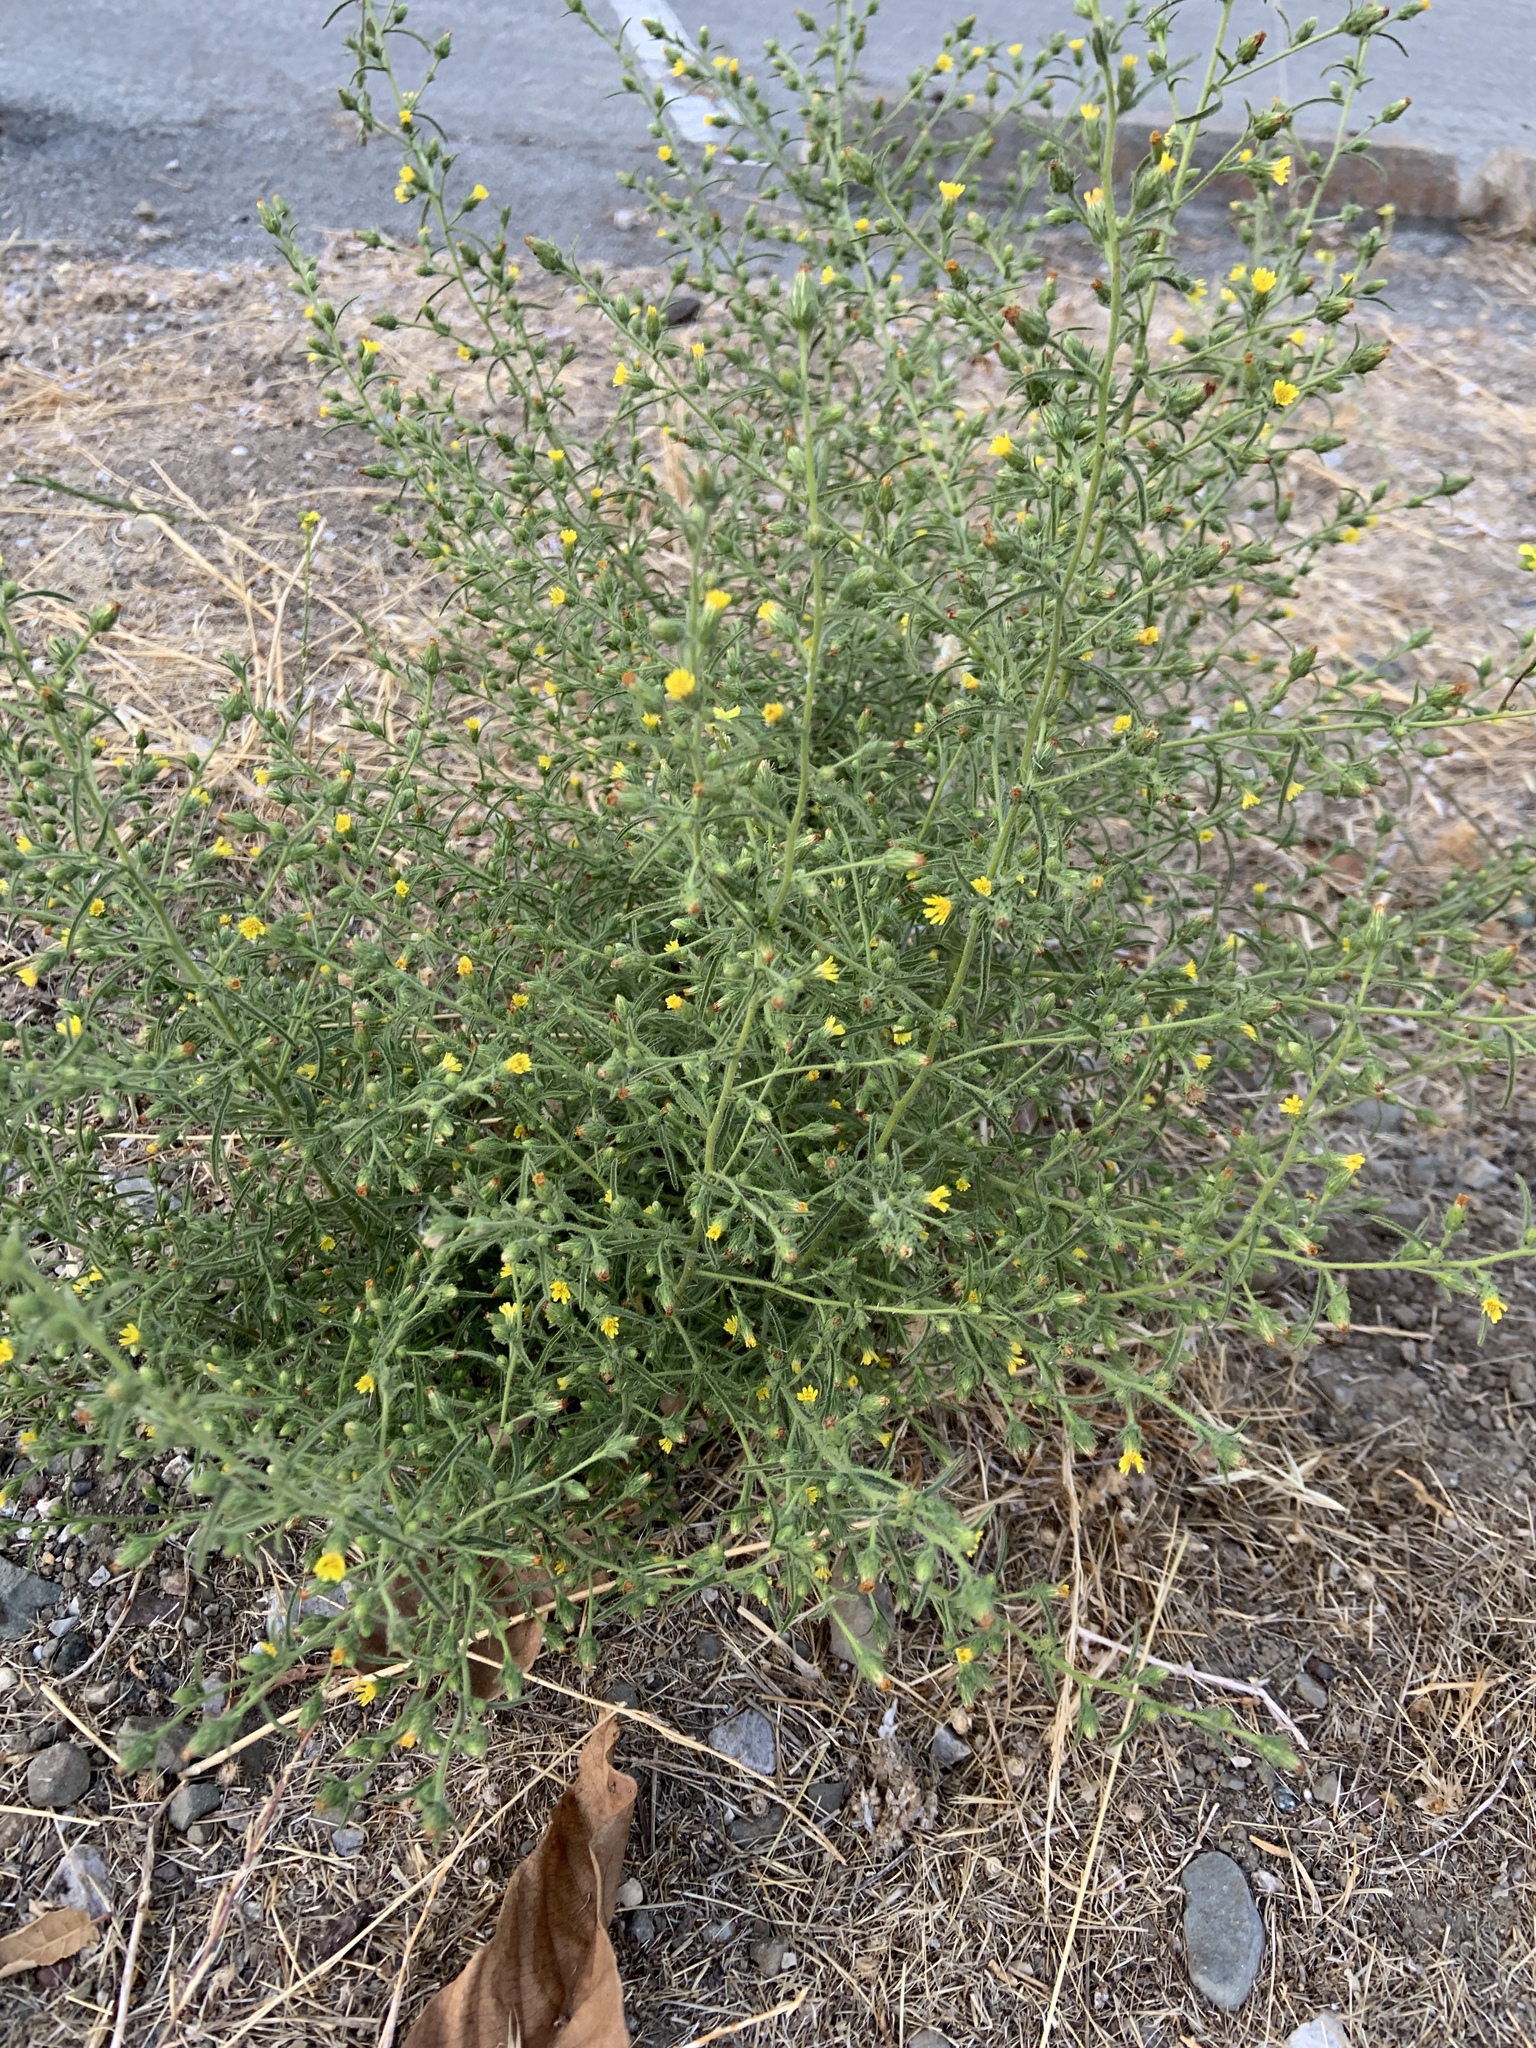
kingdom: Plantae
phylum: Tracheophyta
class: Magnoliopsida
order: Asterales
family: Asteraceae
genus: Dittrichia
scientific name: Dittrichia graveolens
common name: Stinking fleabane
